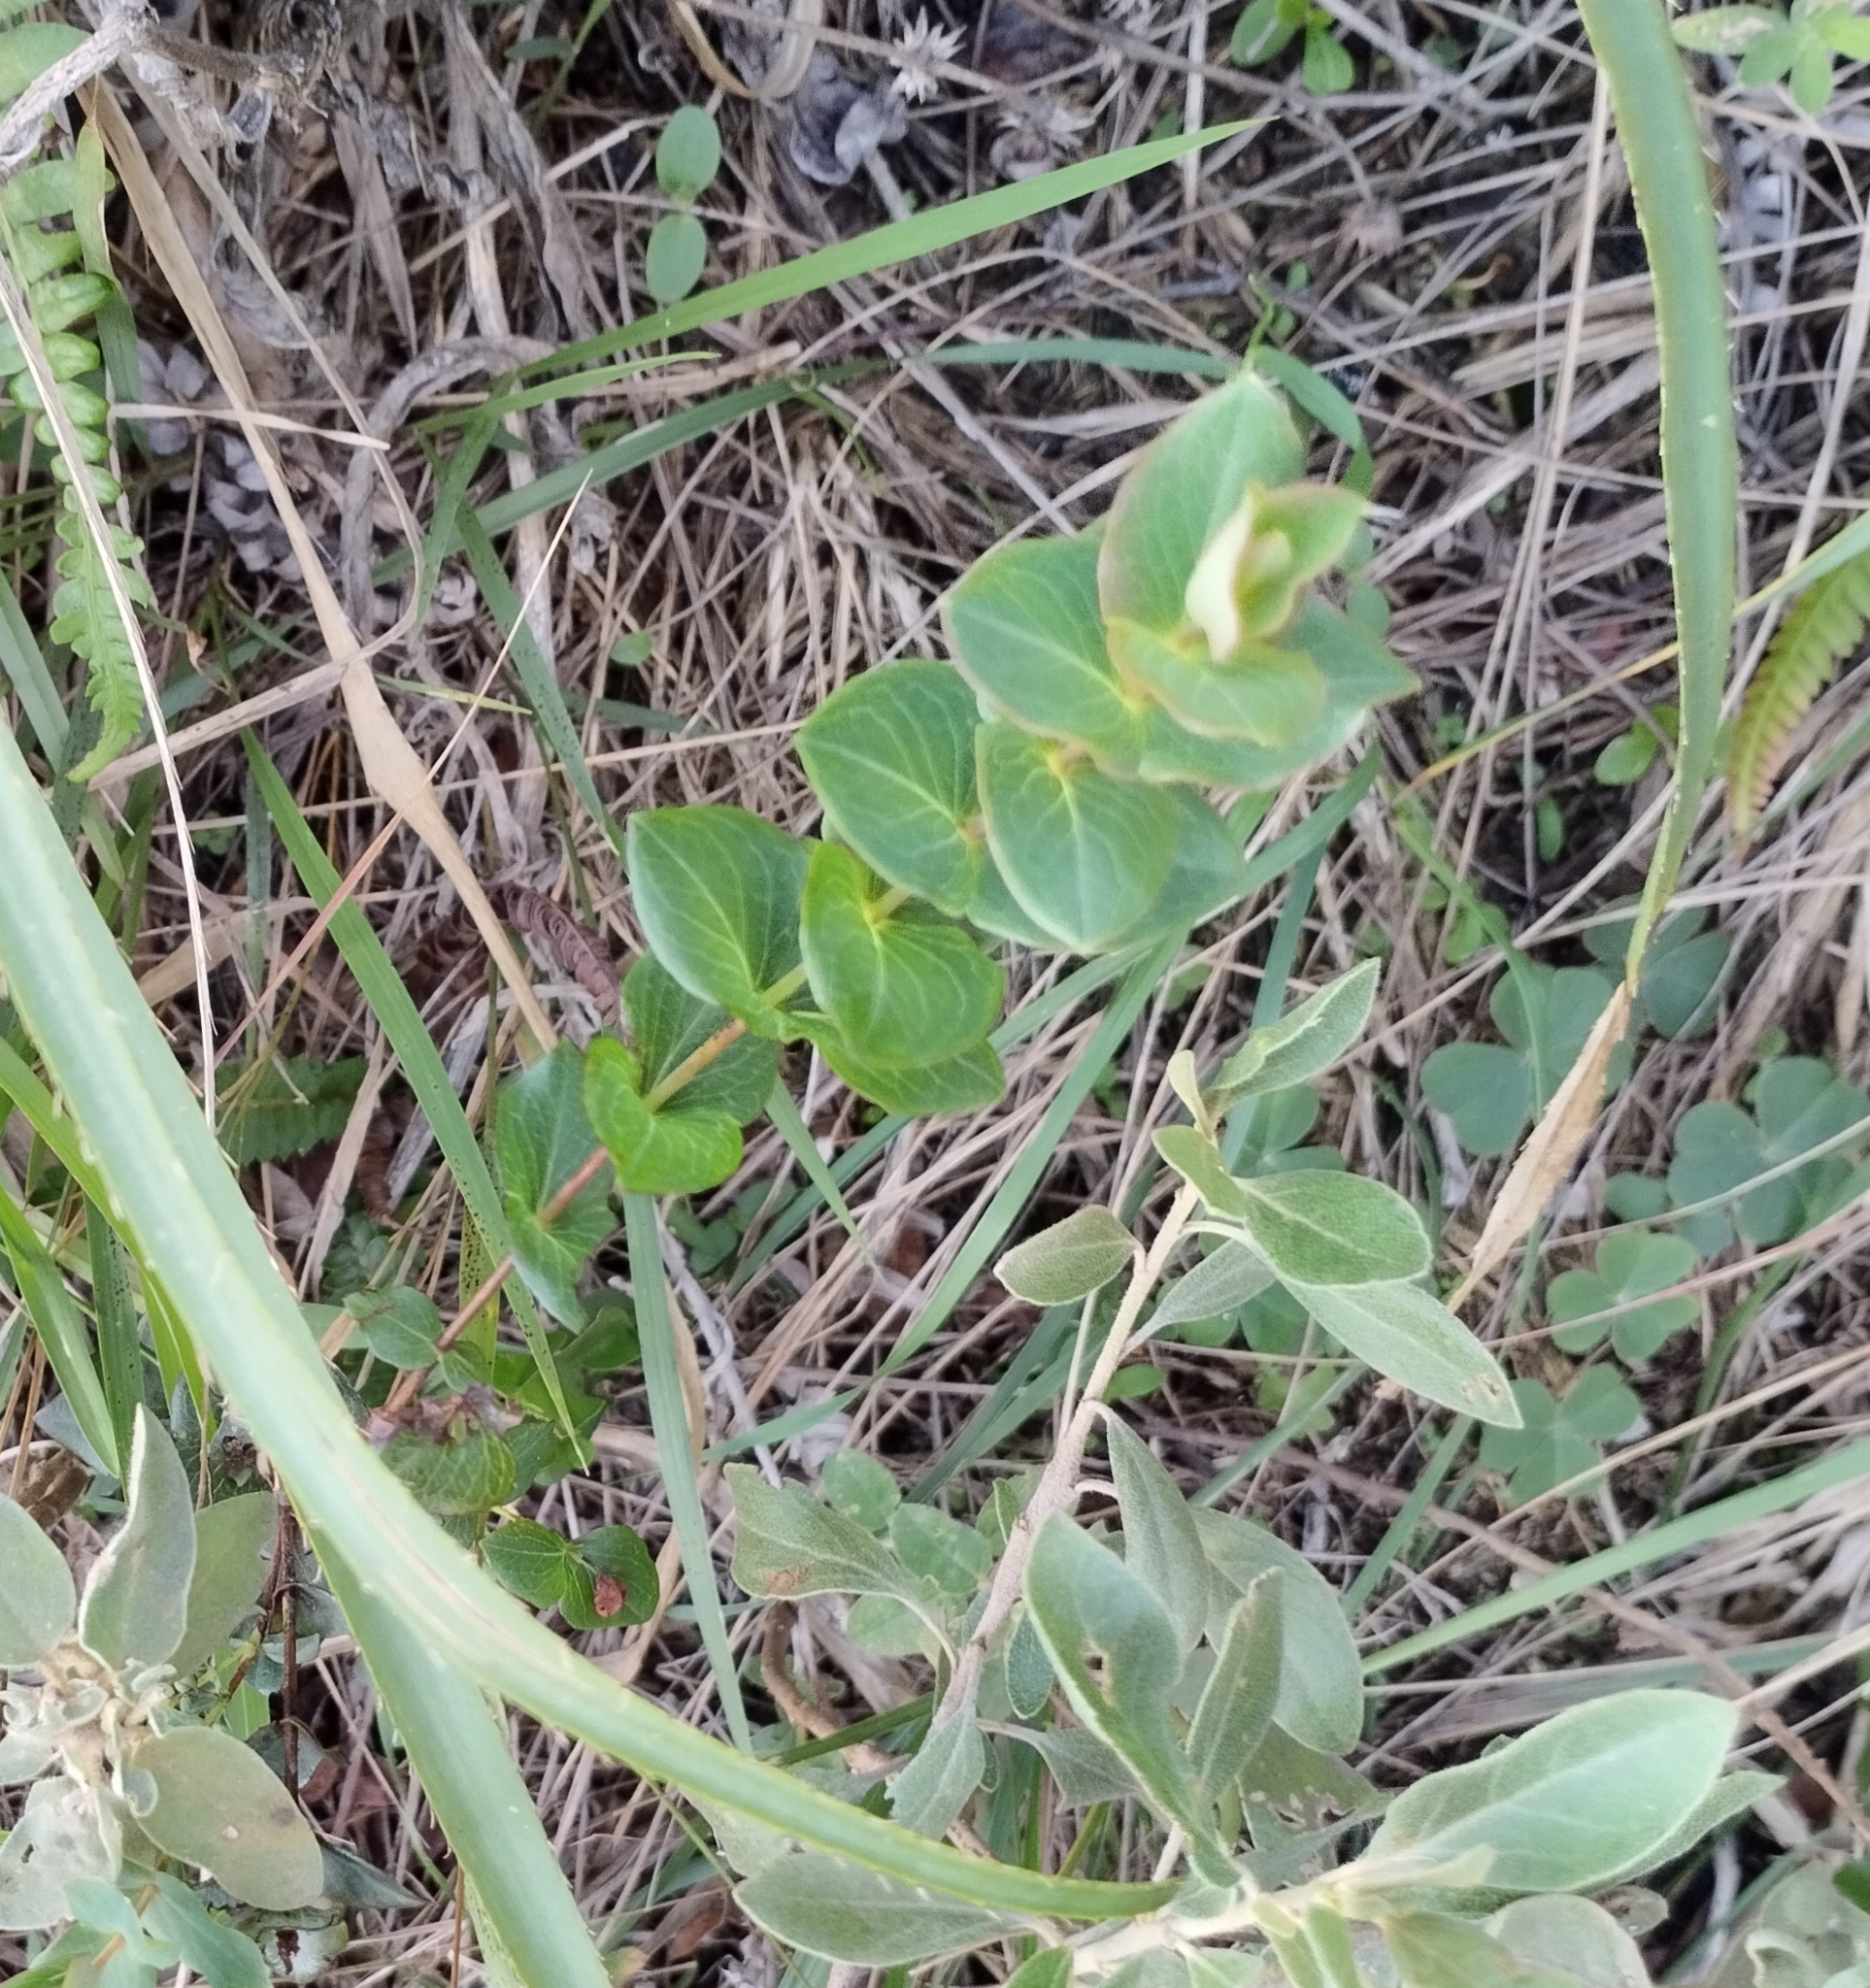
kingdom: Plantae
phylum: Tracheophyta
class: Magnoliopsida
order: Malpighiales
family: Hypericaceae
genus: Hypericum
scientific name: Hypericum connatum
